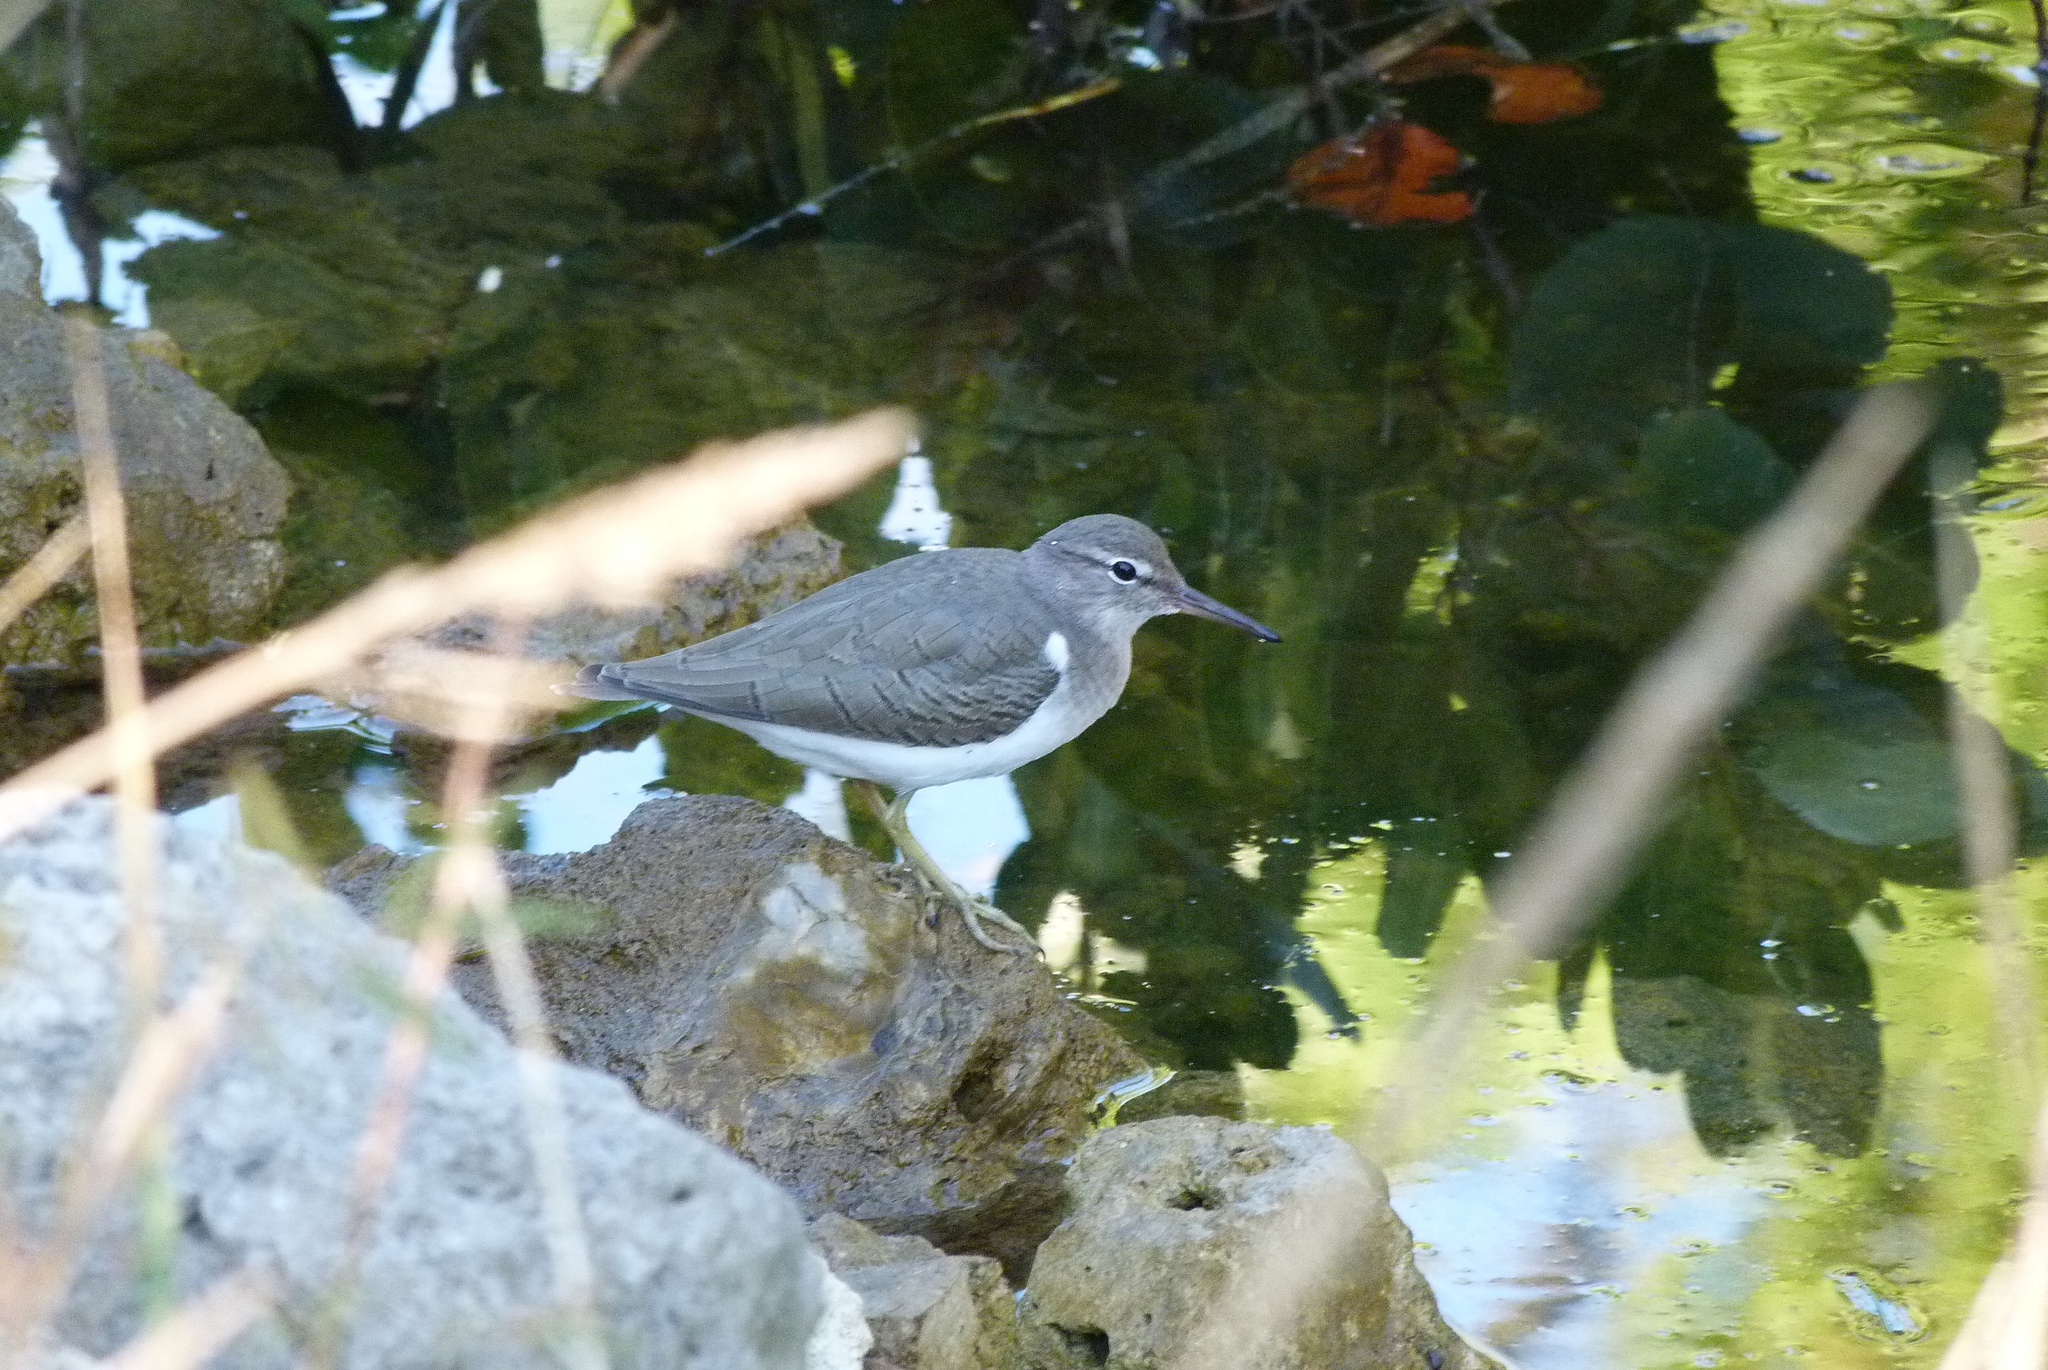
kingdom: Animalia
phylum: Chordata
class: Aves
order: Charadriiformes
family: Scolopacidae
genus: Actitis
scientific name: Actitis macularius
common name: Spotted sandpiper
